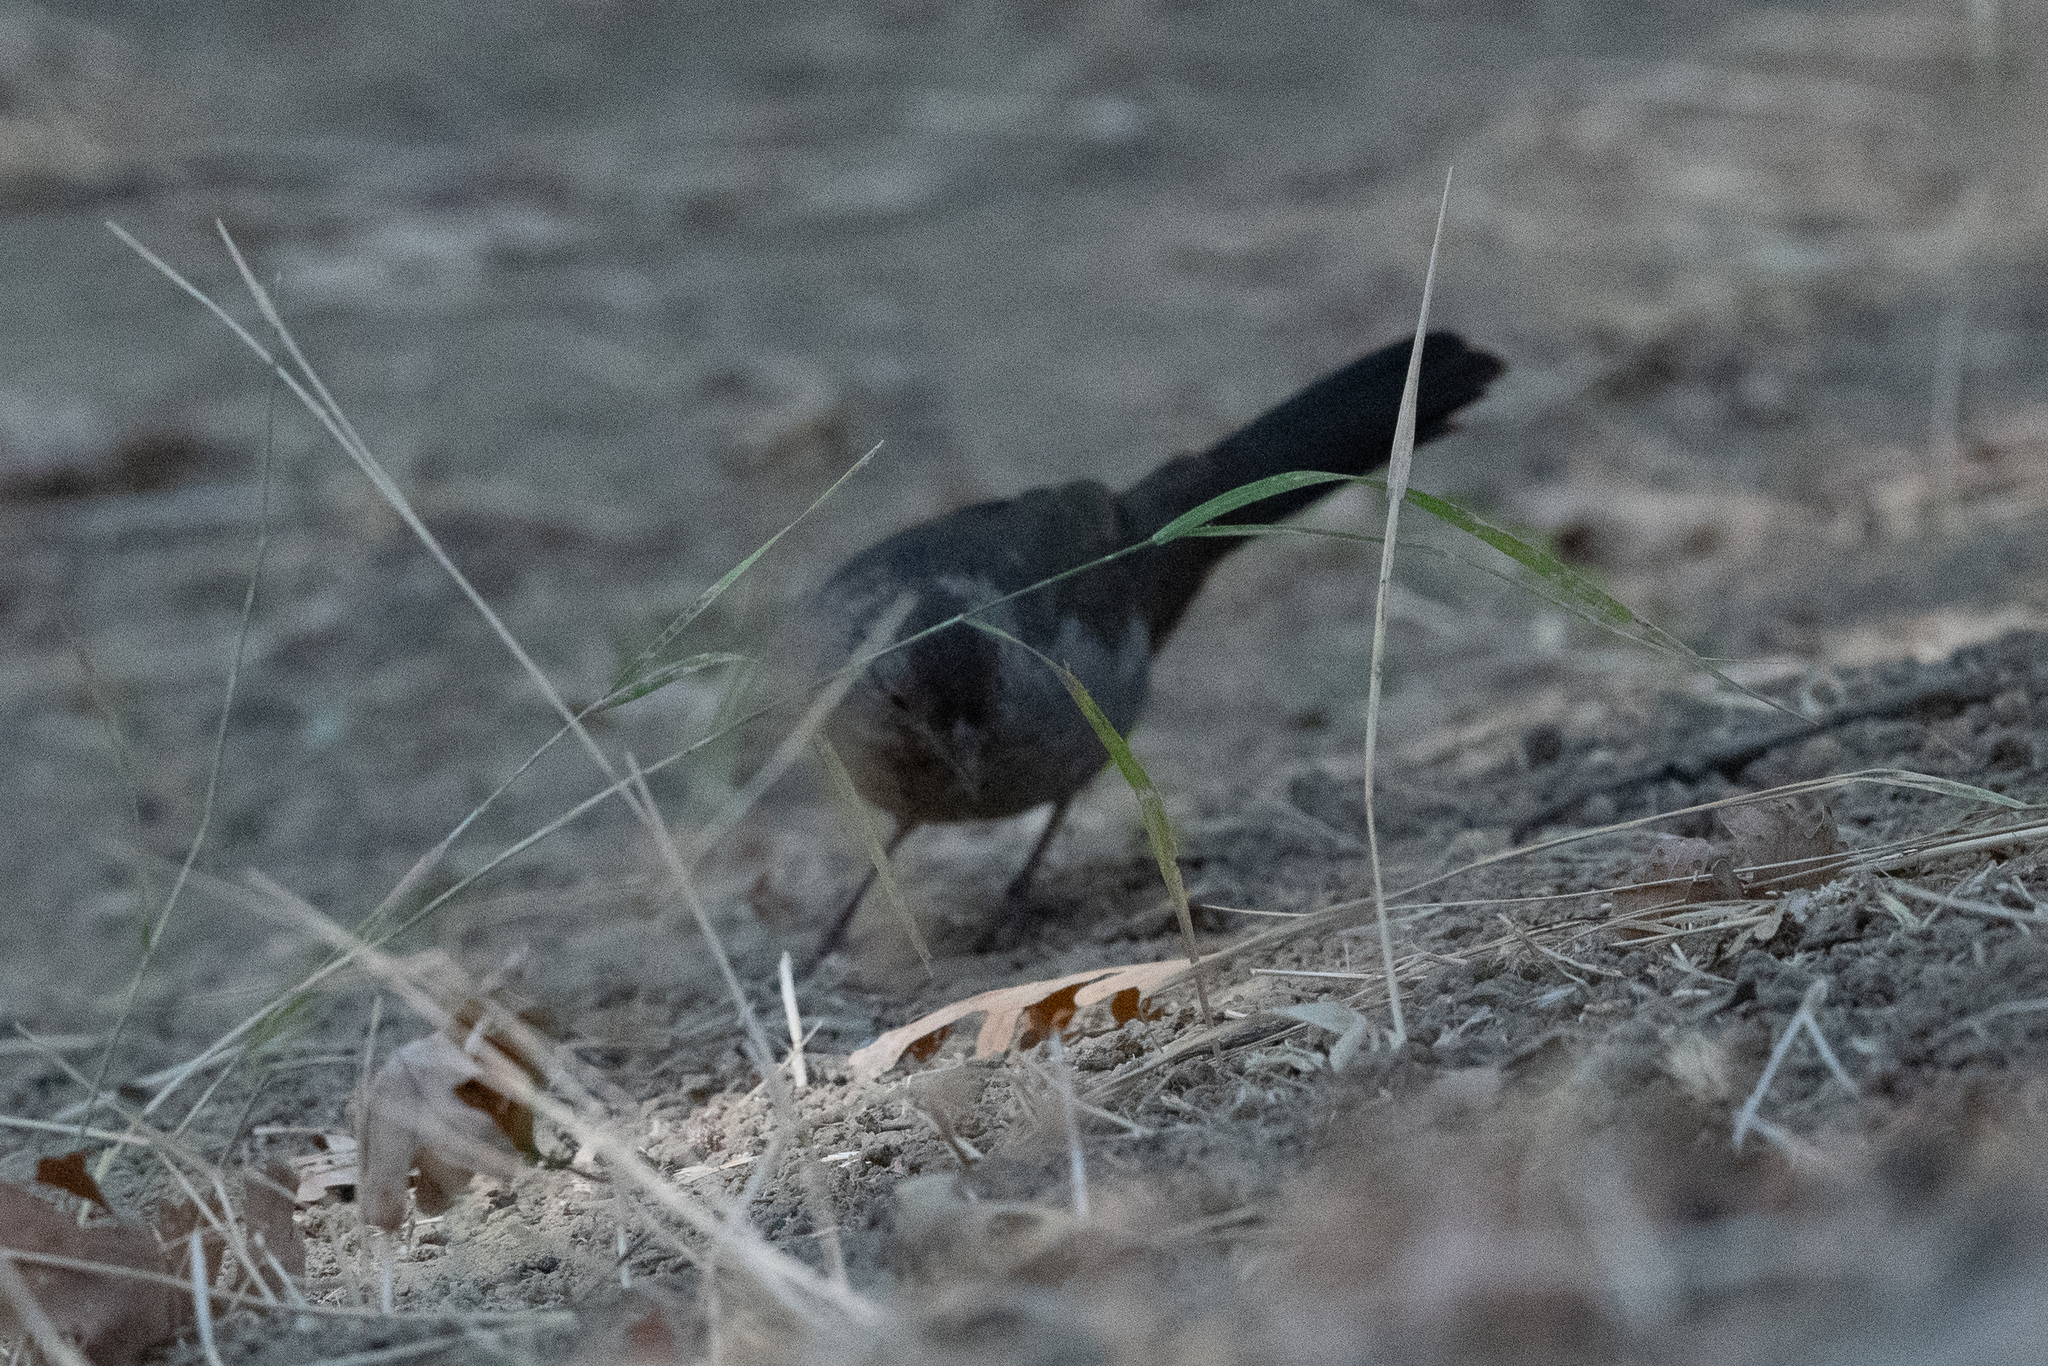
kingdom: Animalia
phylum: Chordata
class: Aves
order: Passeriformes
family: Passerellidae
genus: Melozone
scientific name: Melozone crissalis
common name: California towhee
